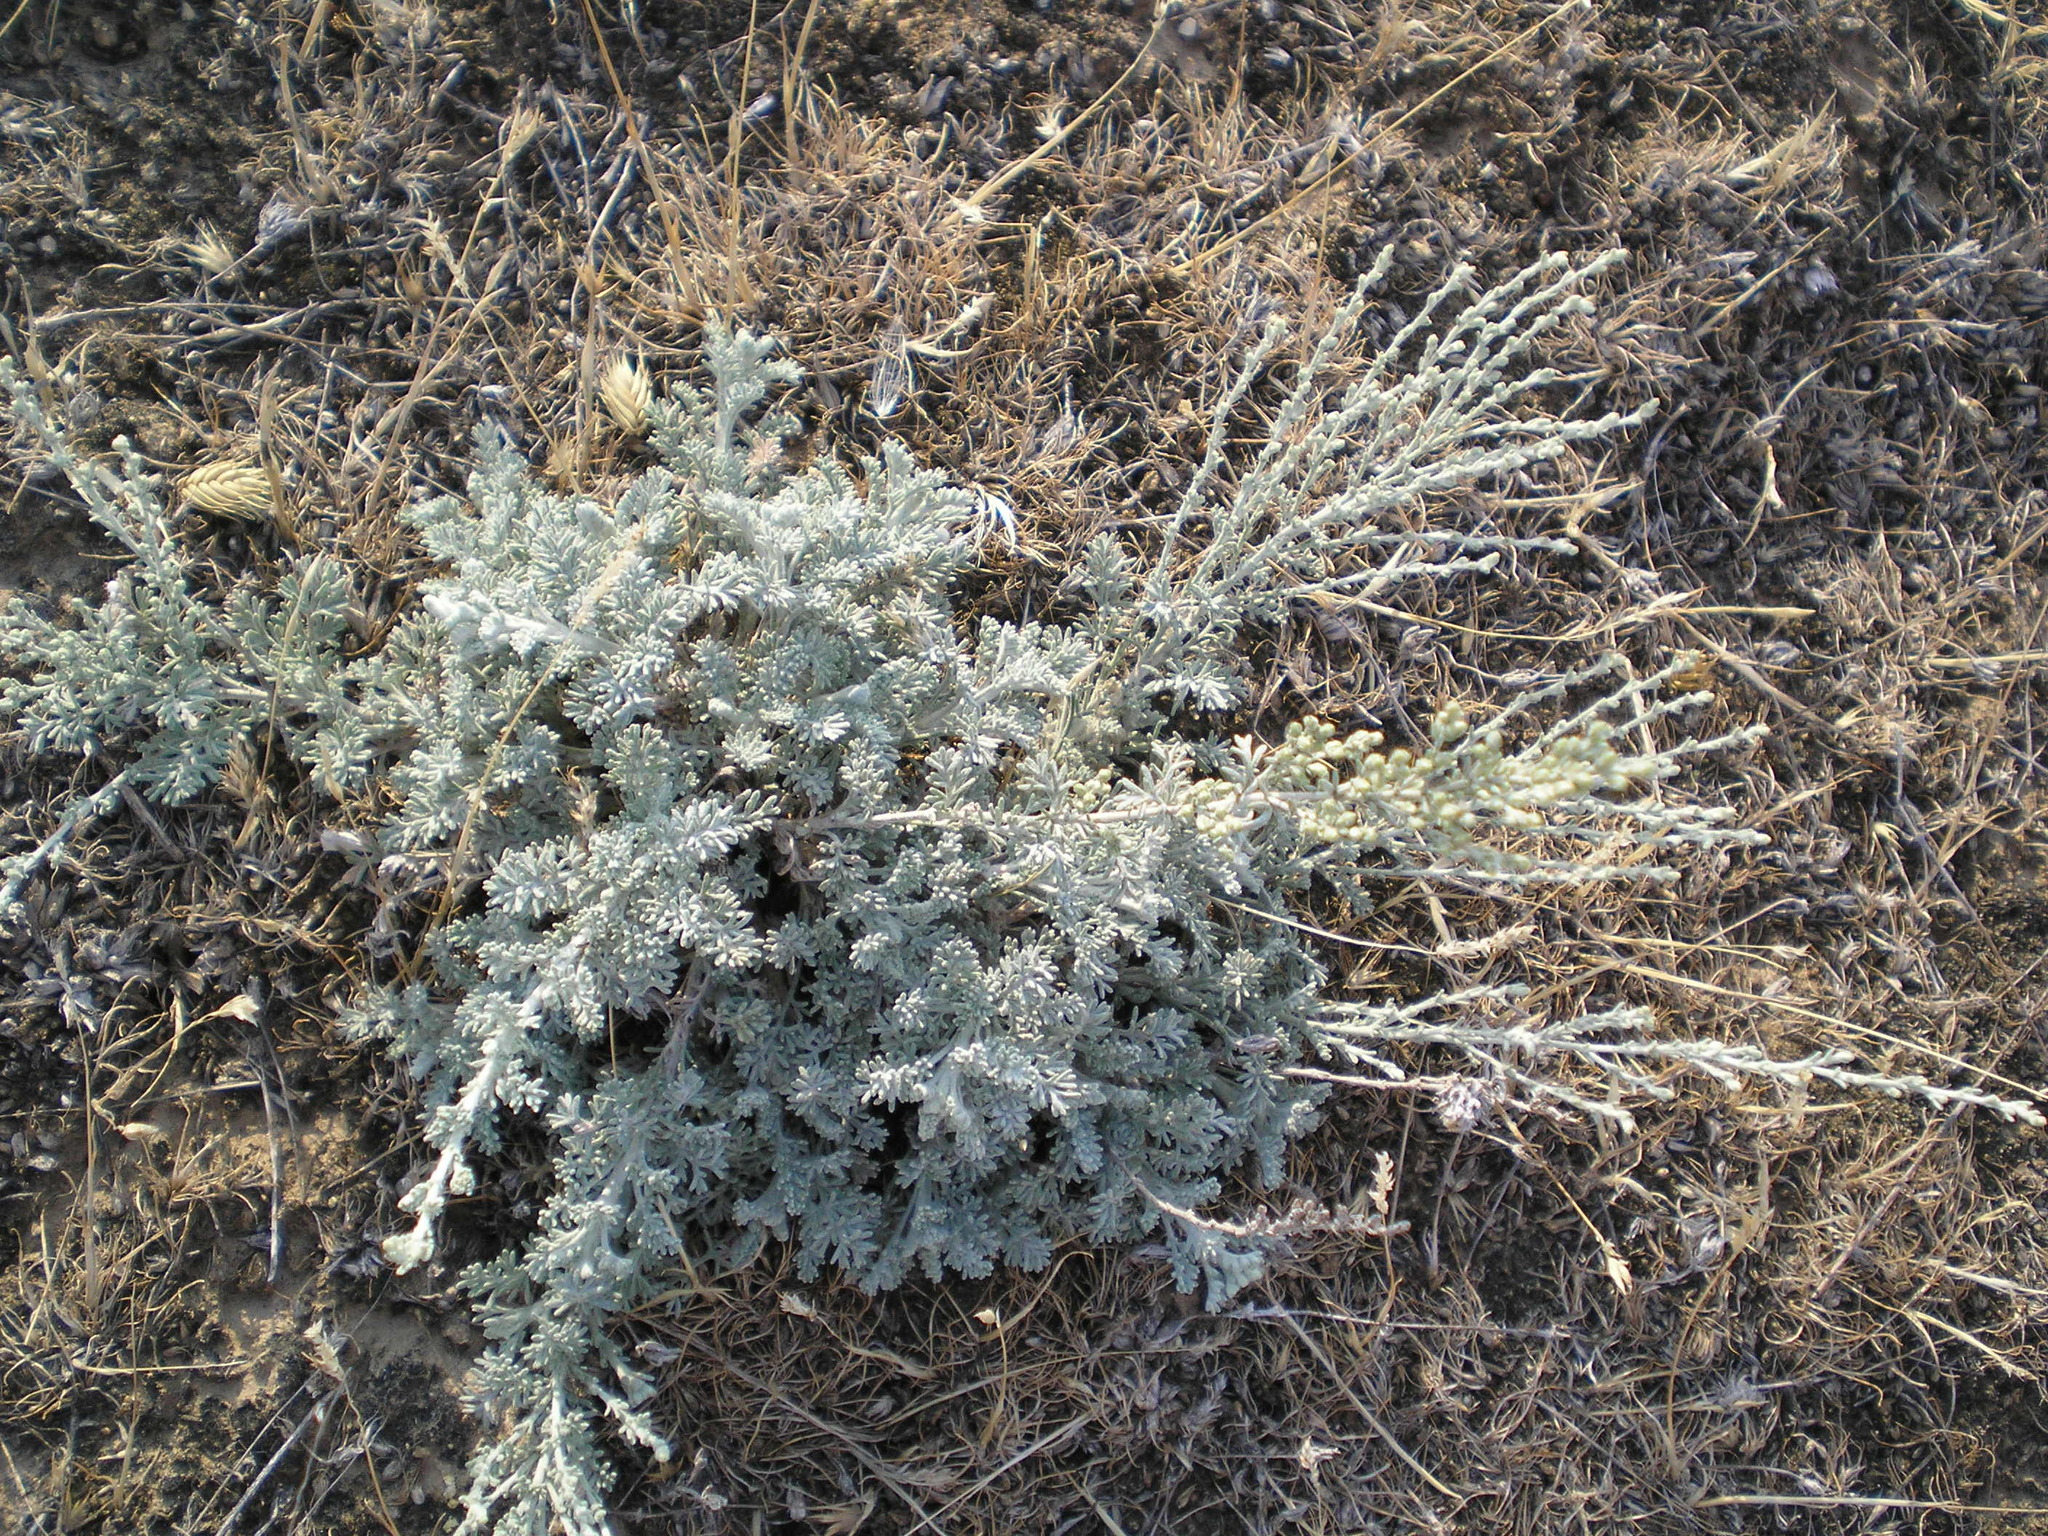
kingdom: Plantae
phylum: Tracheophyta
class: Magnoliopsida
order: Asterales
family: Asteraceae
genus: Artemisia
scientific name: Artemisia fragrans
